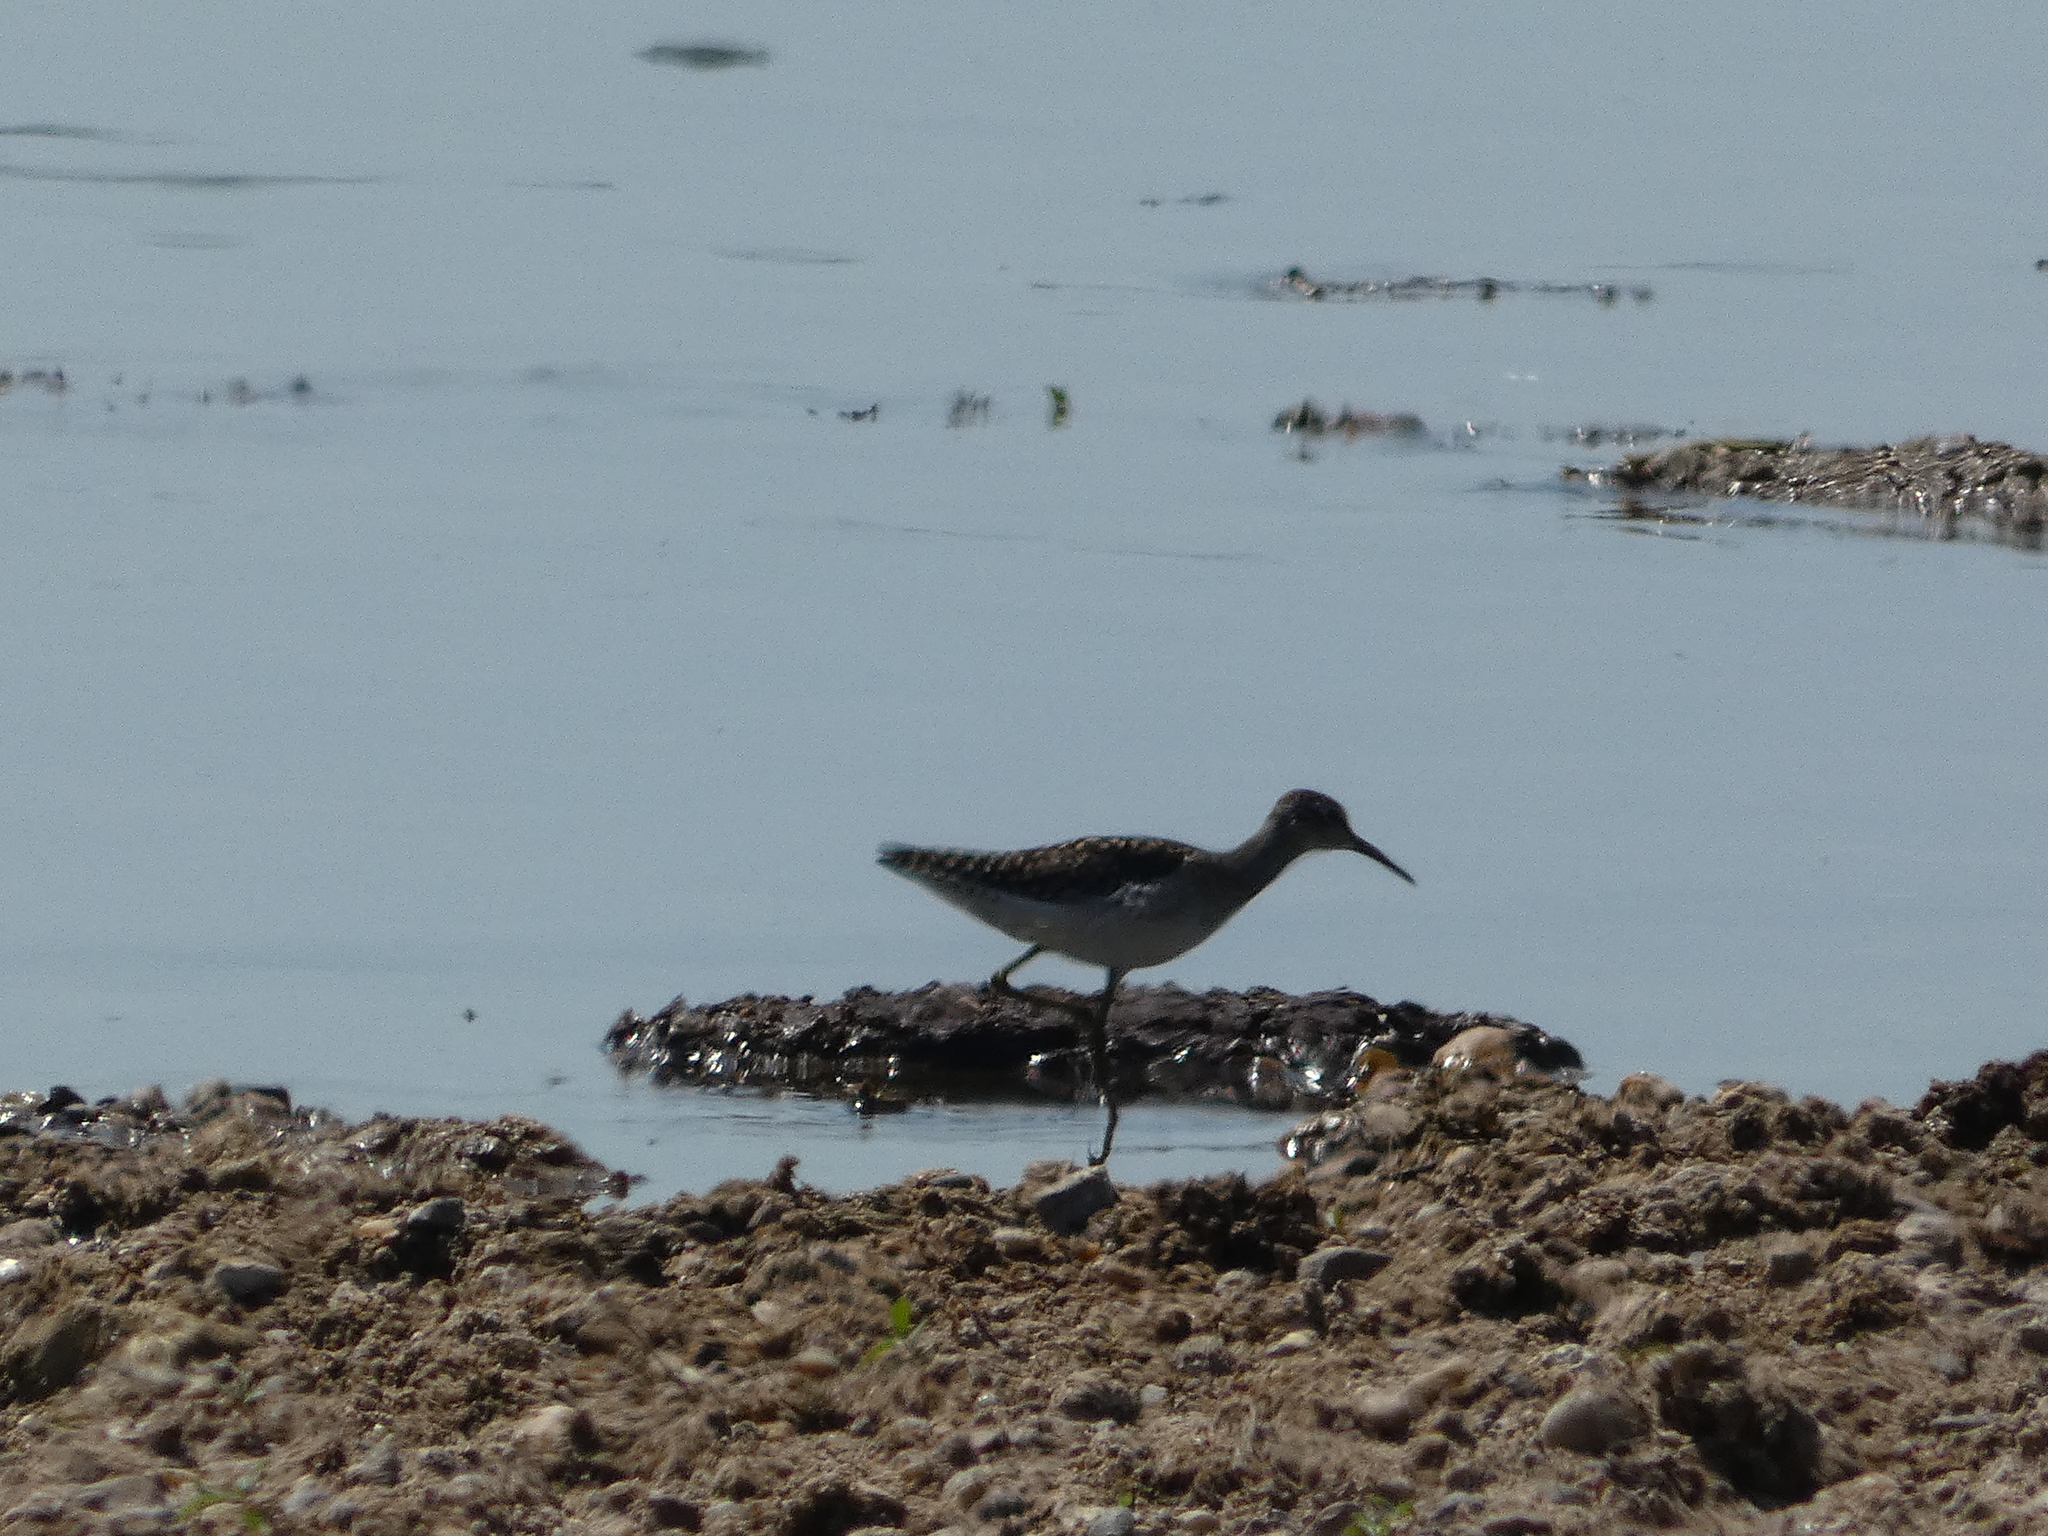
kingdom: Animalia
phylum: Chordata
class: Aves
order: Charadriiformes
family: Scolopacidae
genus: Tringa
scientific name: Tringa glareola
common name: Wood sandpiper
